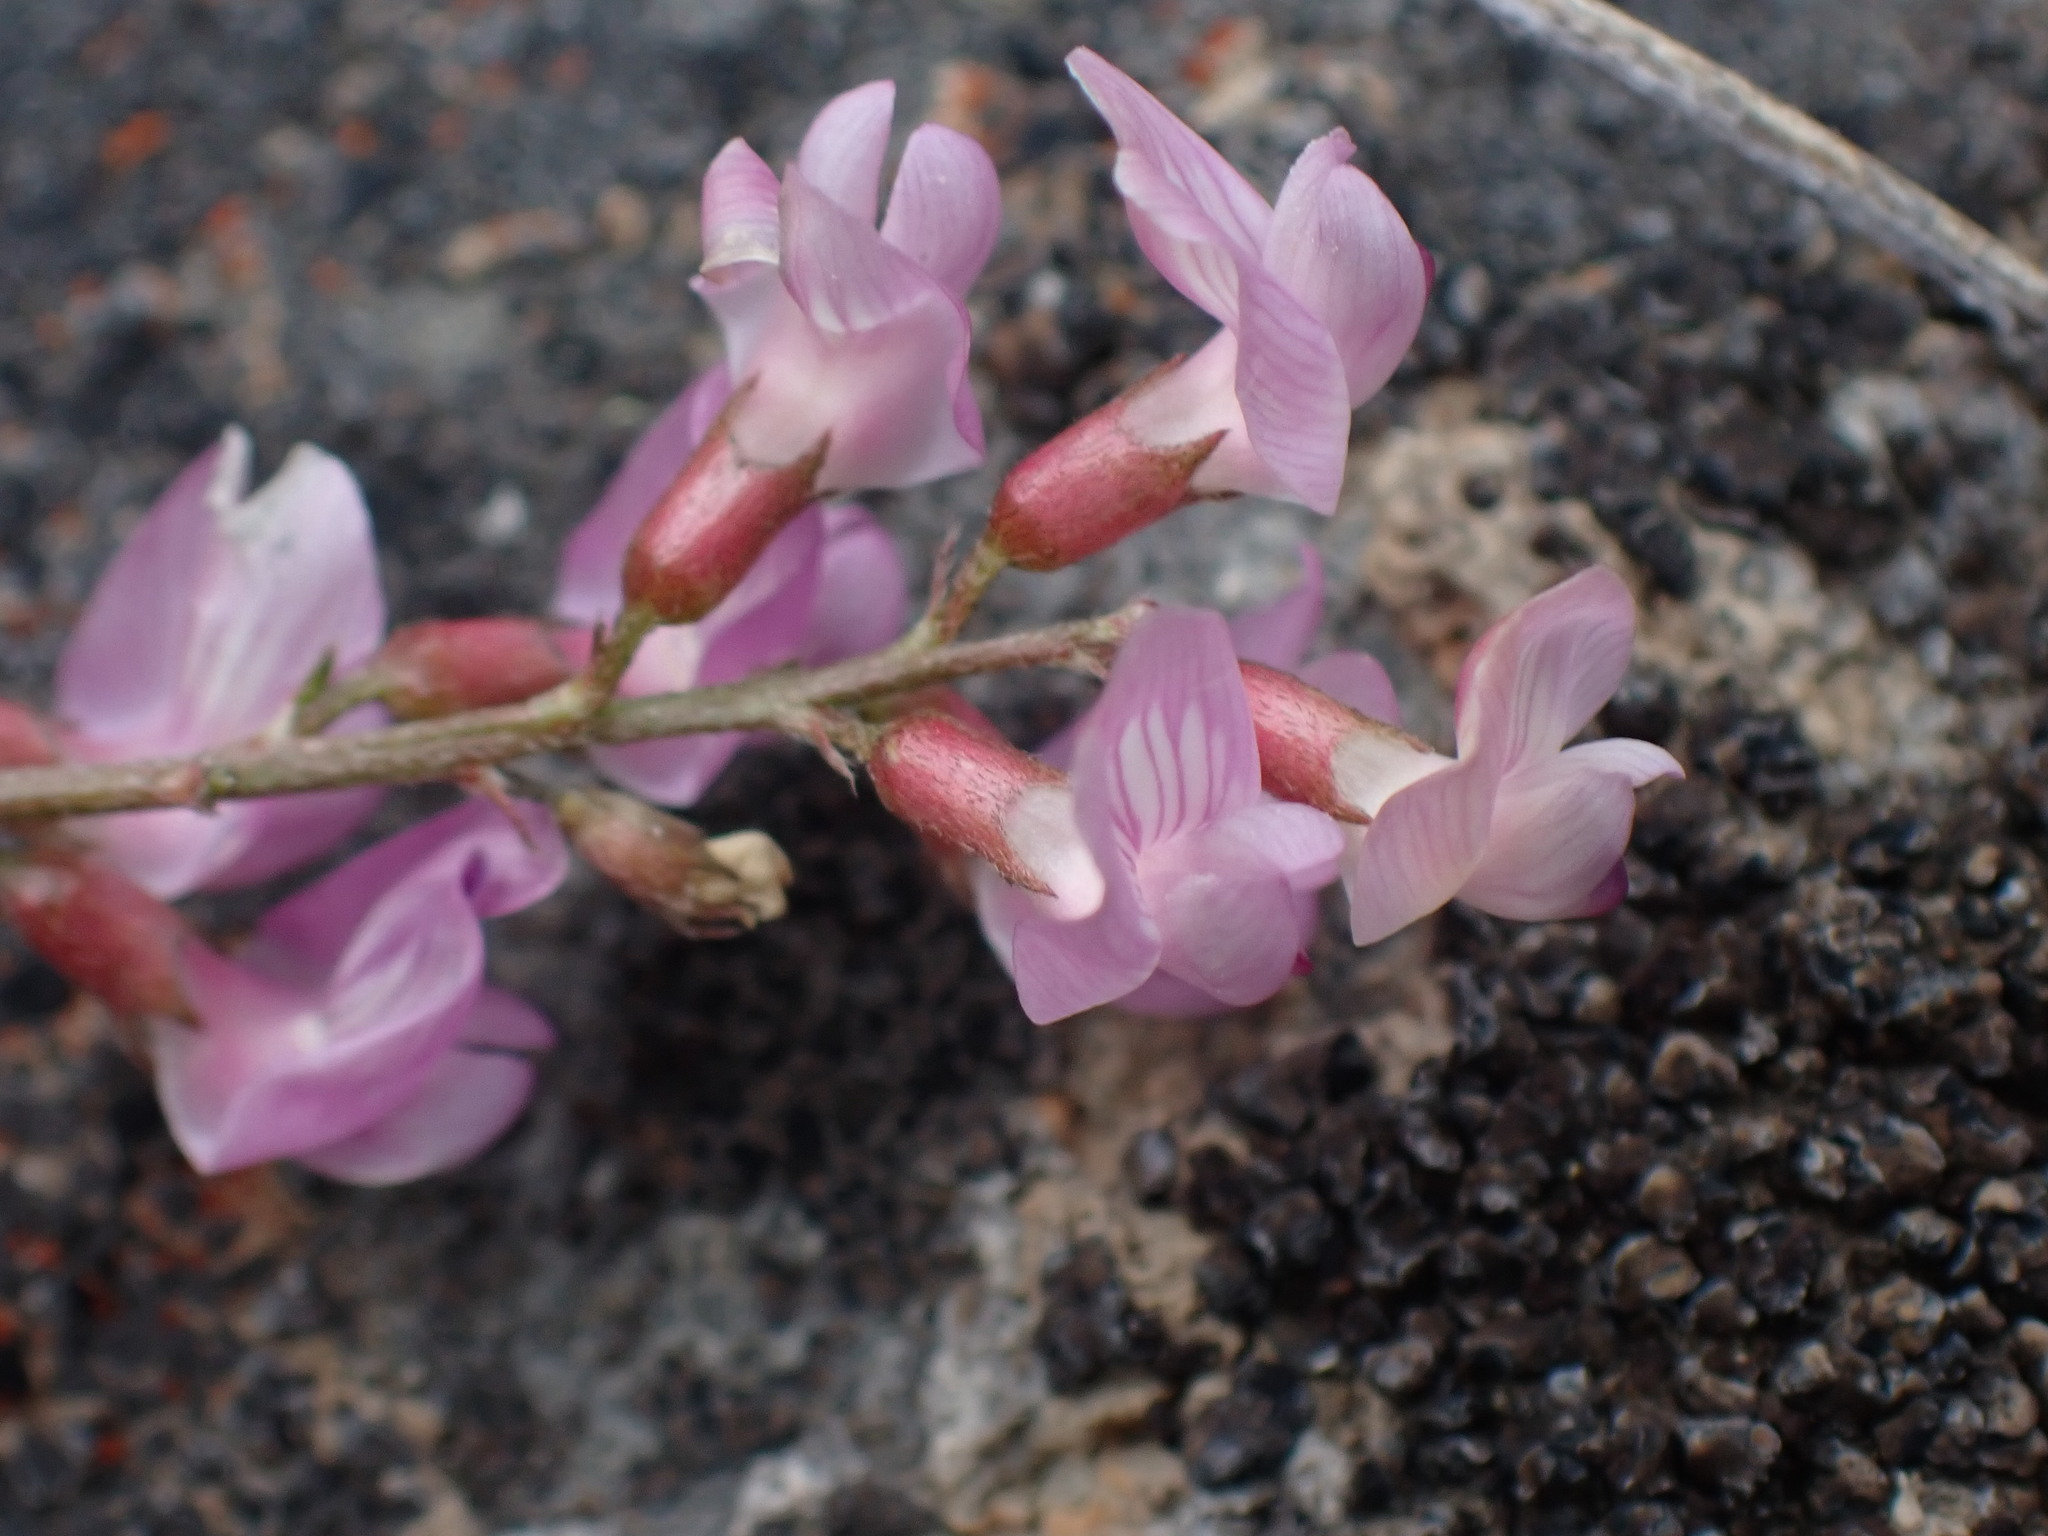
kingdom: Plantae
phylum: Tracheophyta
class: Magnoliopsida
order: Fabales
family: Fabaceae
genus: Astragalus
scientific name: Astragalus miser
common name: Timber milkvetch
